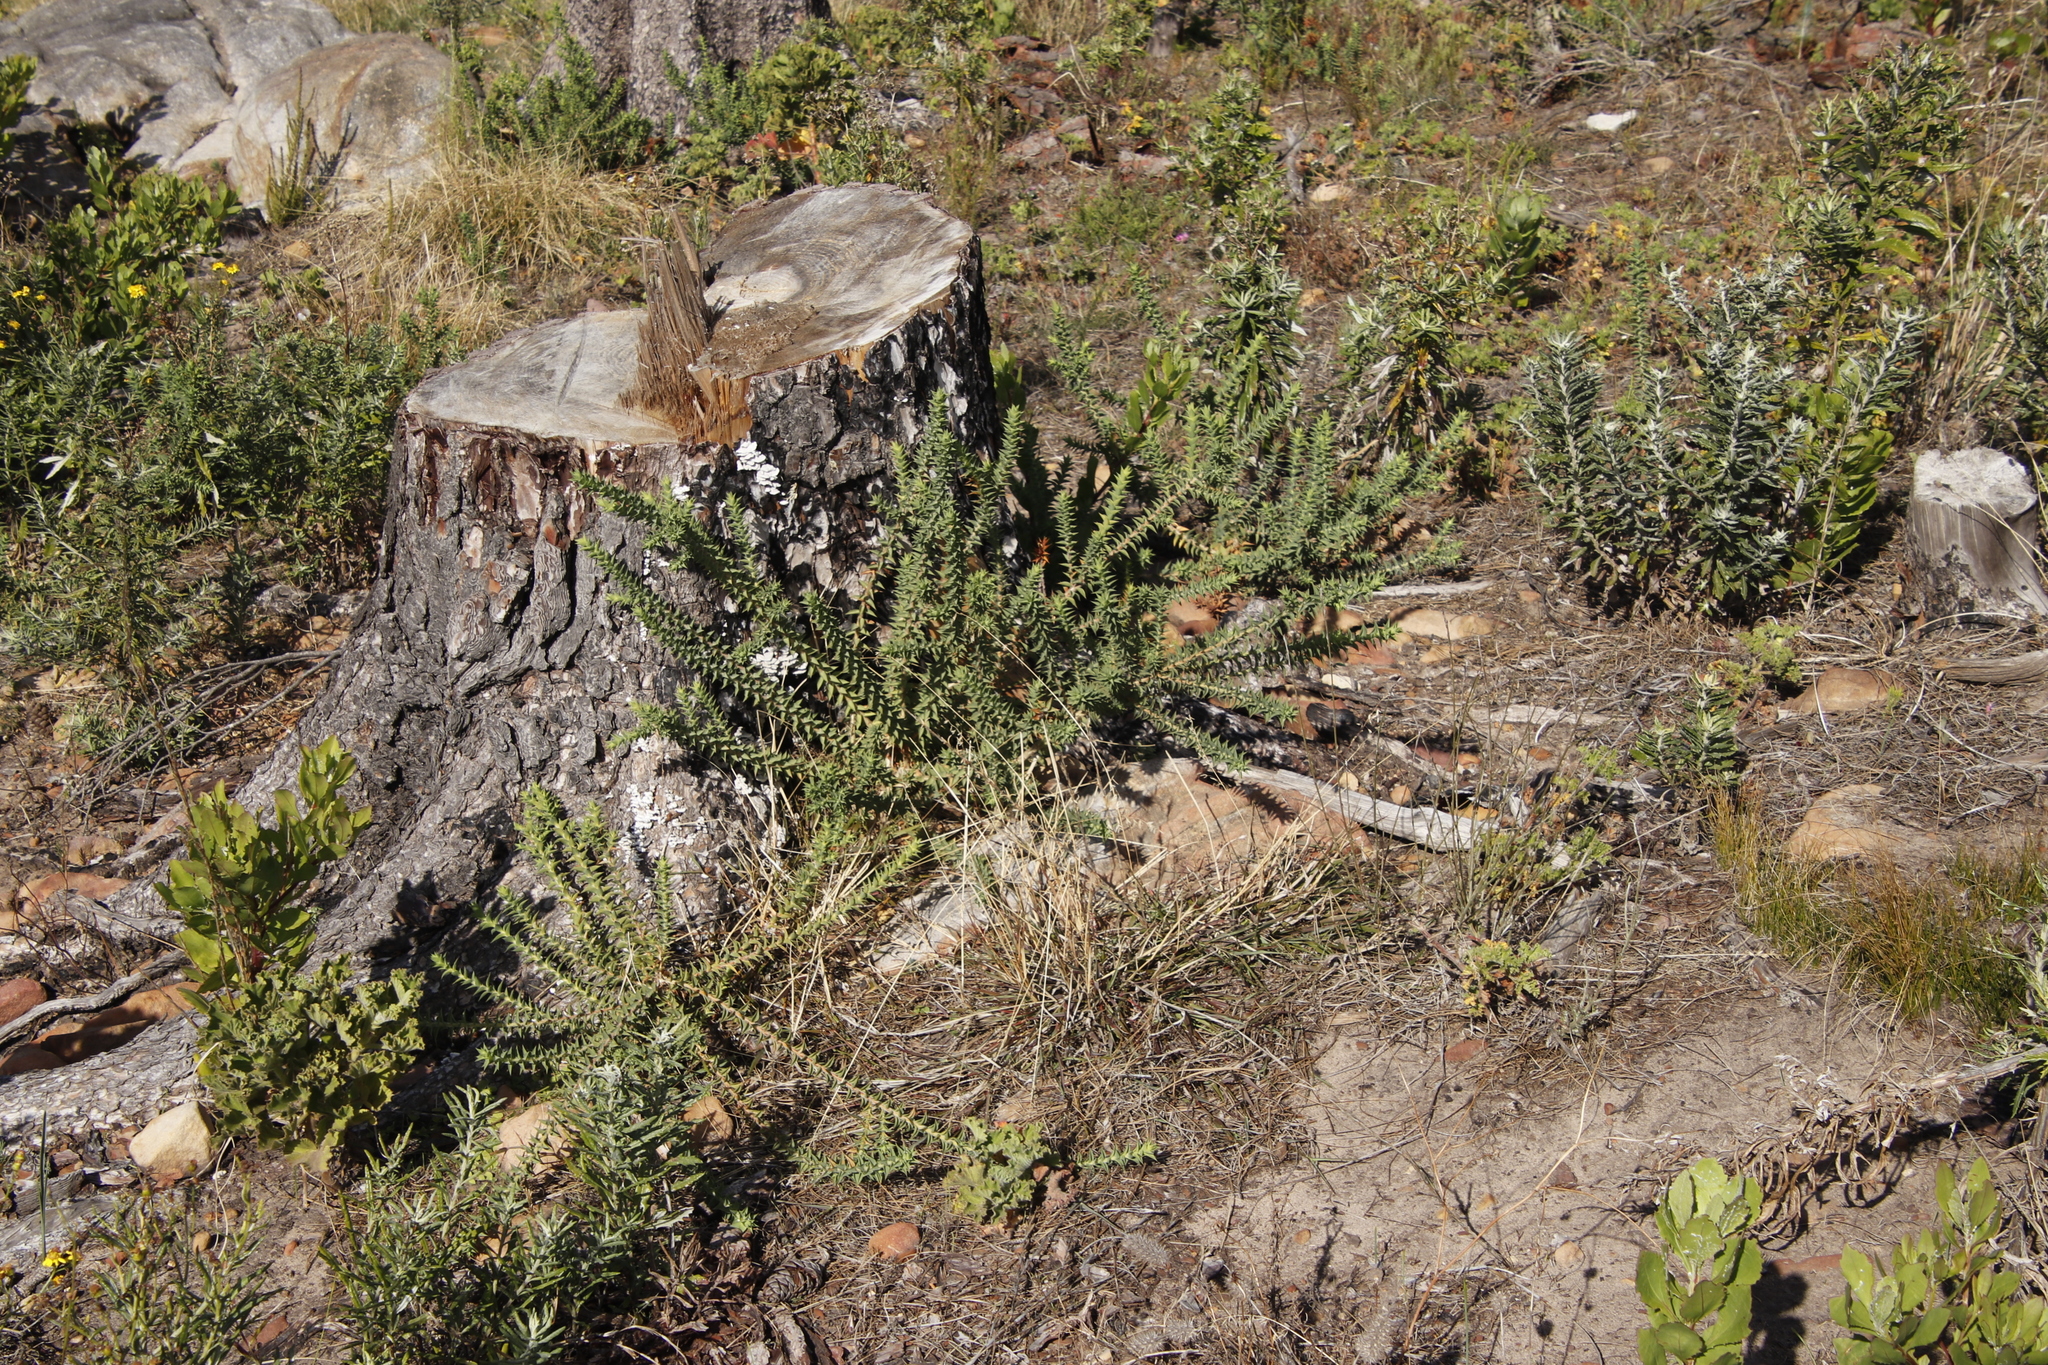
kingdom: Plantae
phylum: Tracheophyta
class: Magnoliopsida
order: Fabales
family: Fabaceae
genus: Aspalathus
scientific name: Aspalathus cordata
